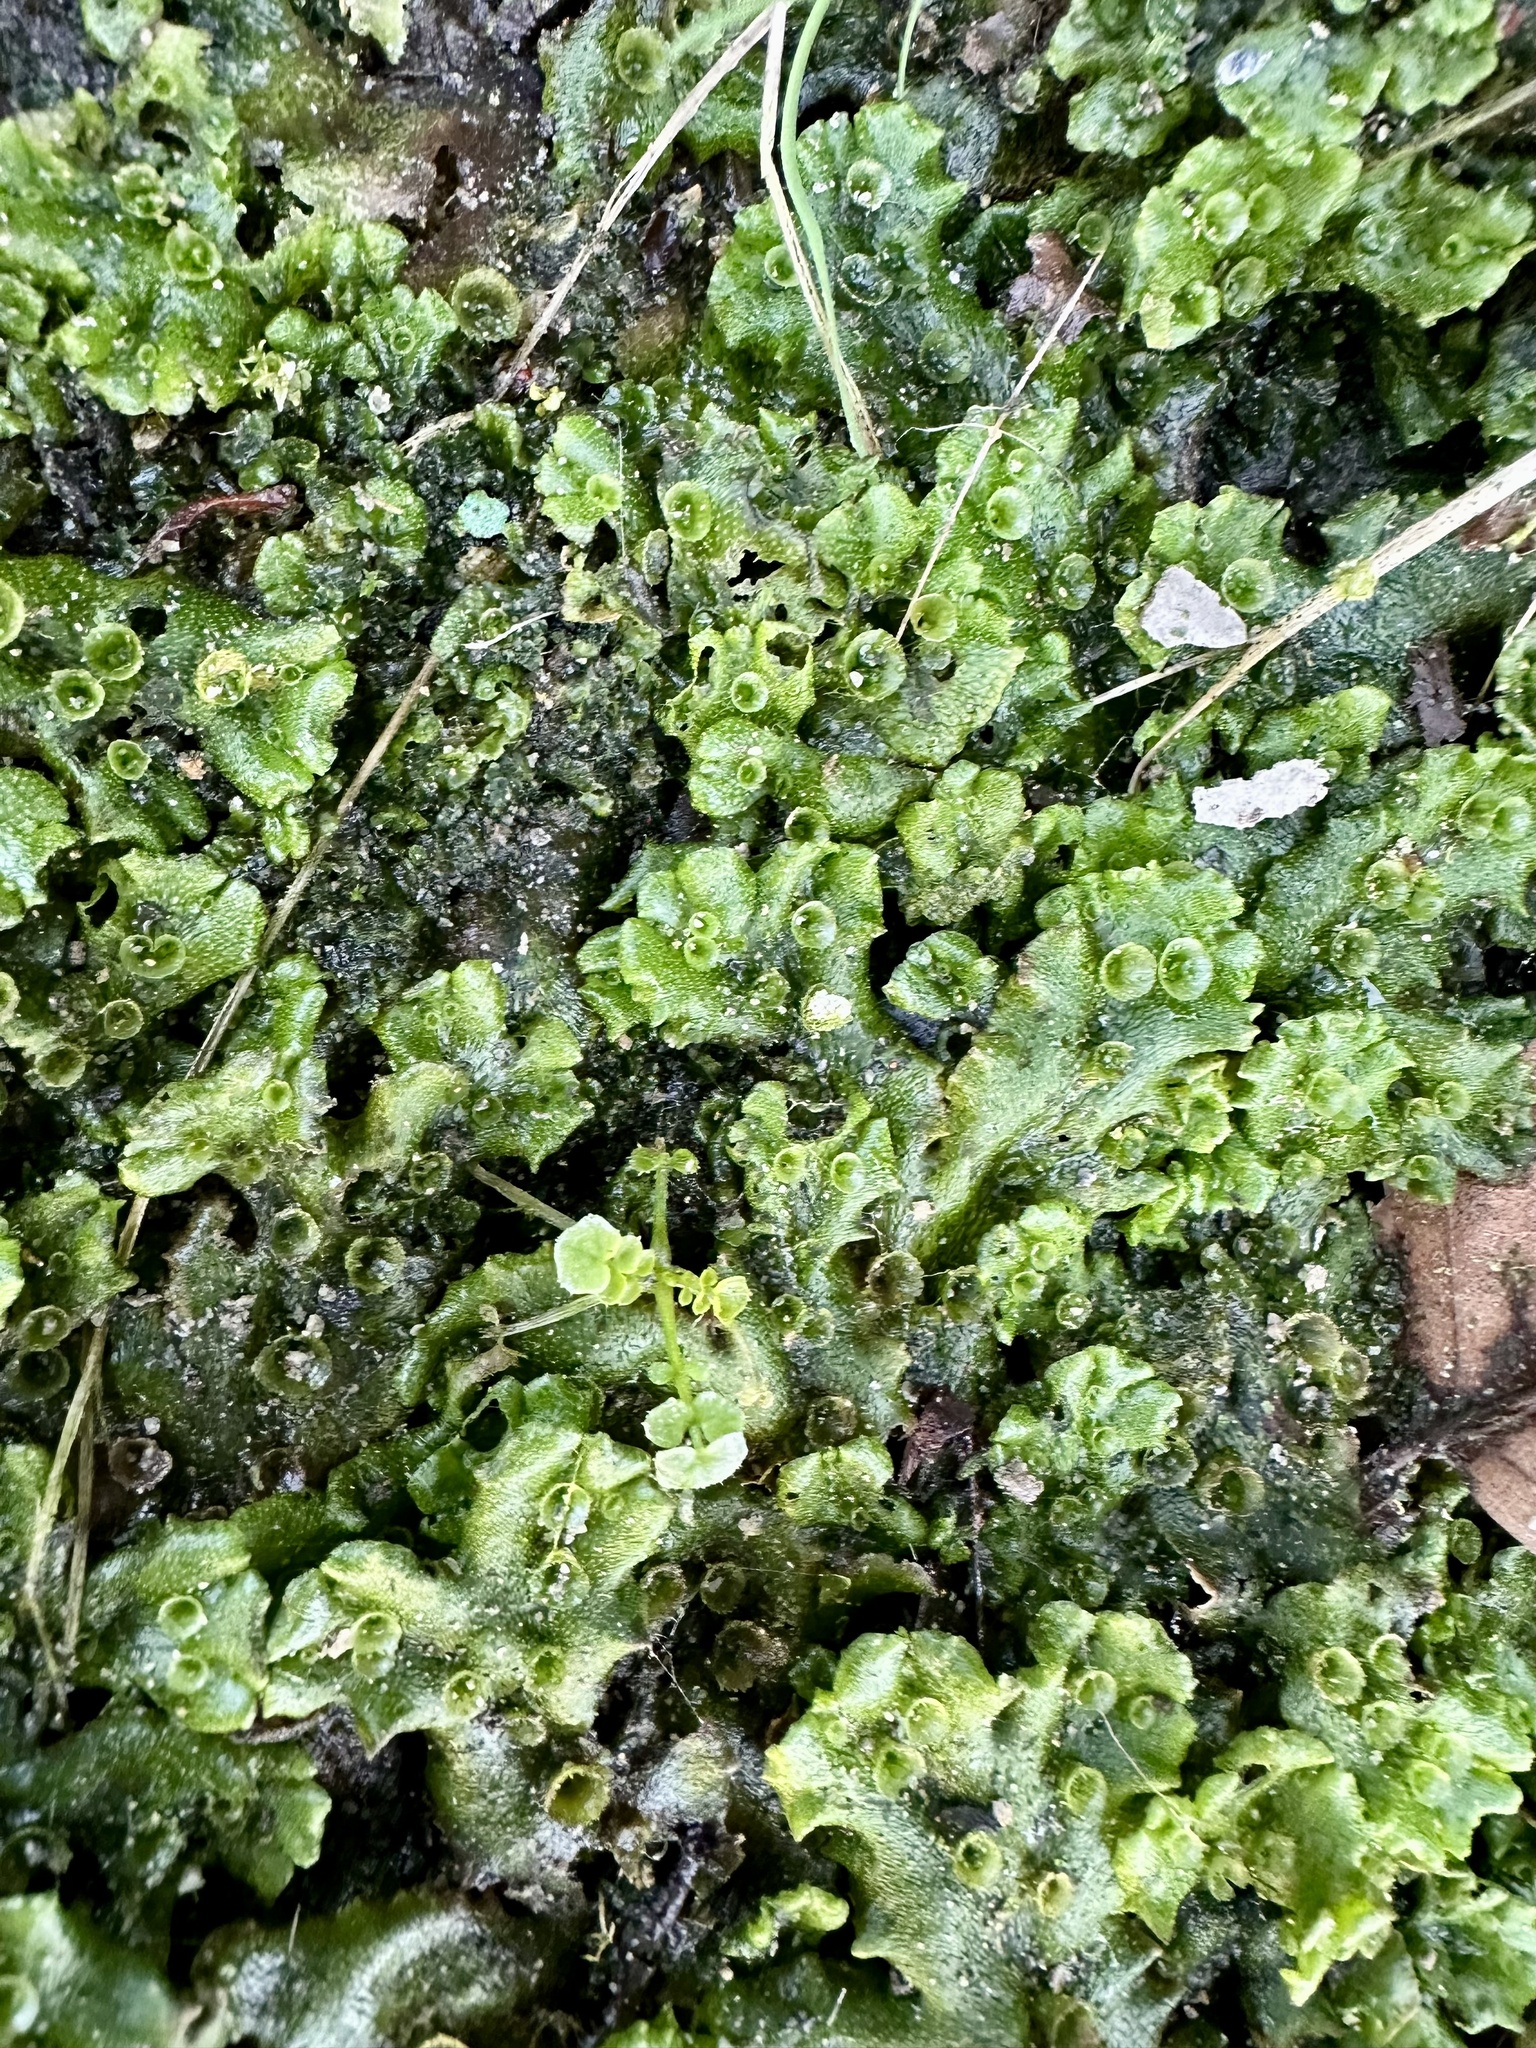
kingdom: Plantae
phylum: Marchantiophyta
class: Marchantiopsida
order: Marchantiales
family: Marchantiaceae
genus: Marchantia
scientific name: Marchantia polymorpha
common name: Common liverwort
